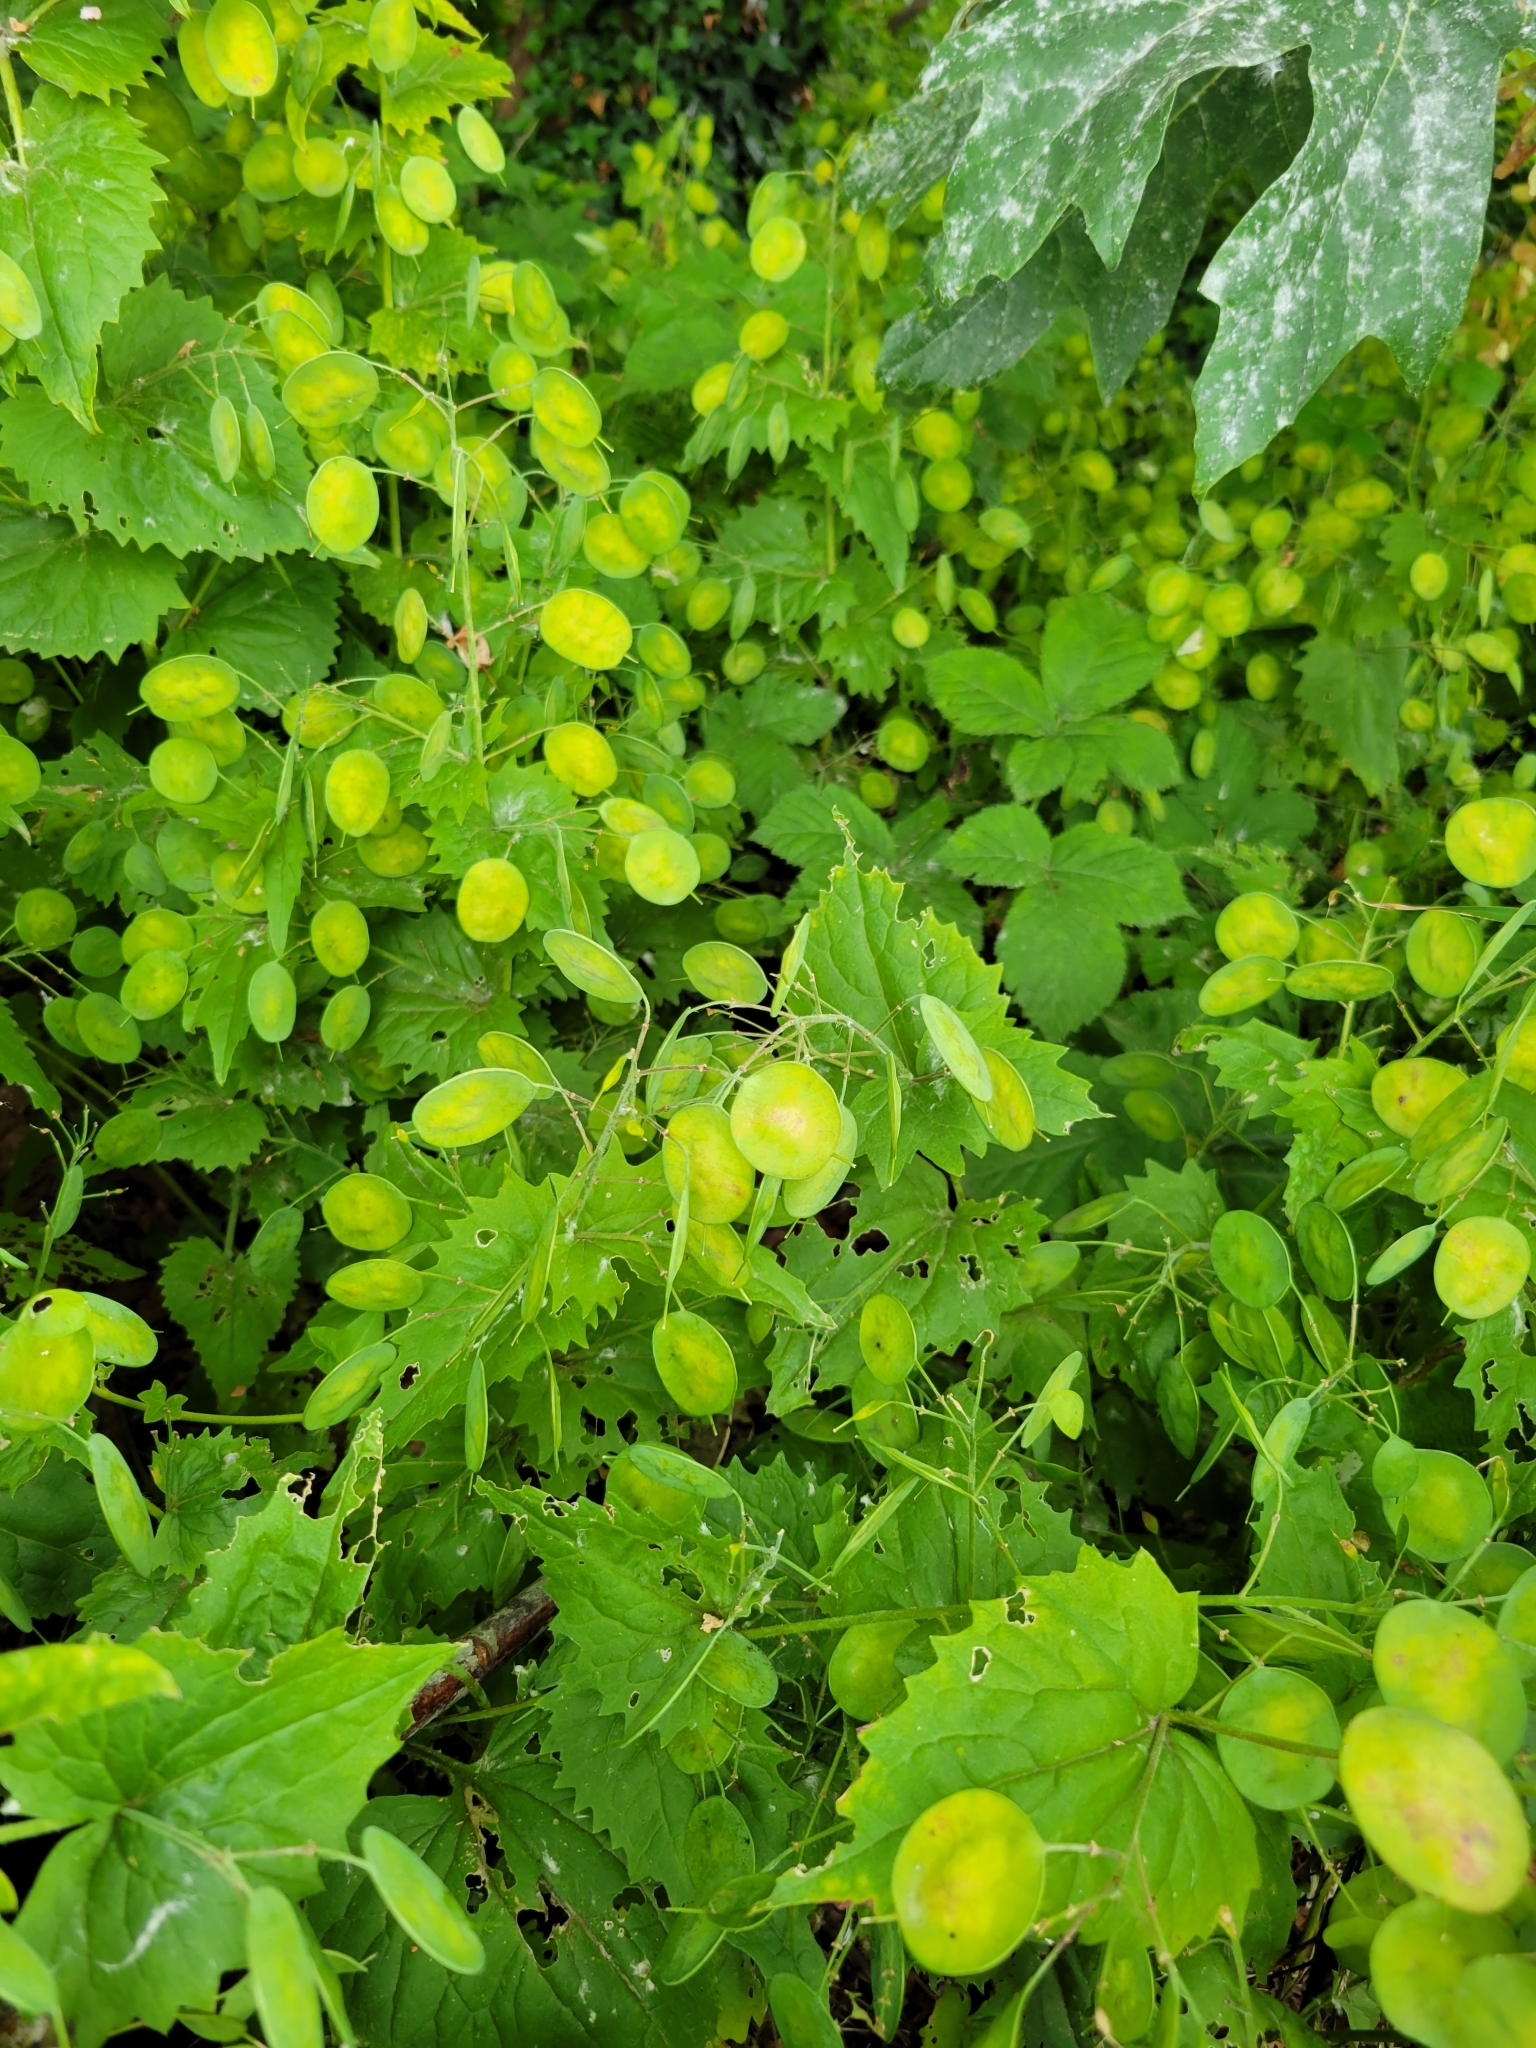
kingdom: Plantae
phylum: Tracheophyta
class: Magnoliopsida
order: Brassicales
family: Brassicaceae
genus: Lunaria
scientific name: Lunaria annua
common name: Honesty
